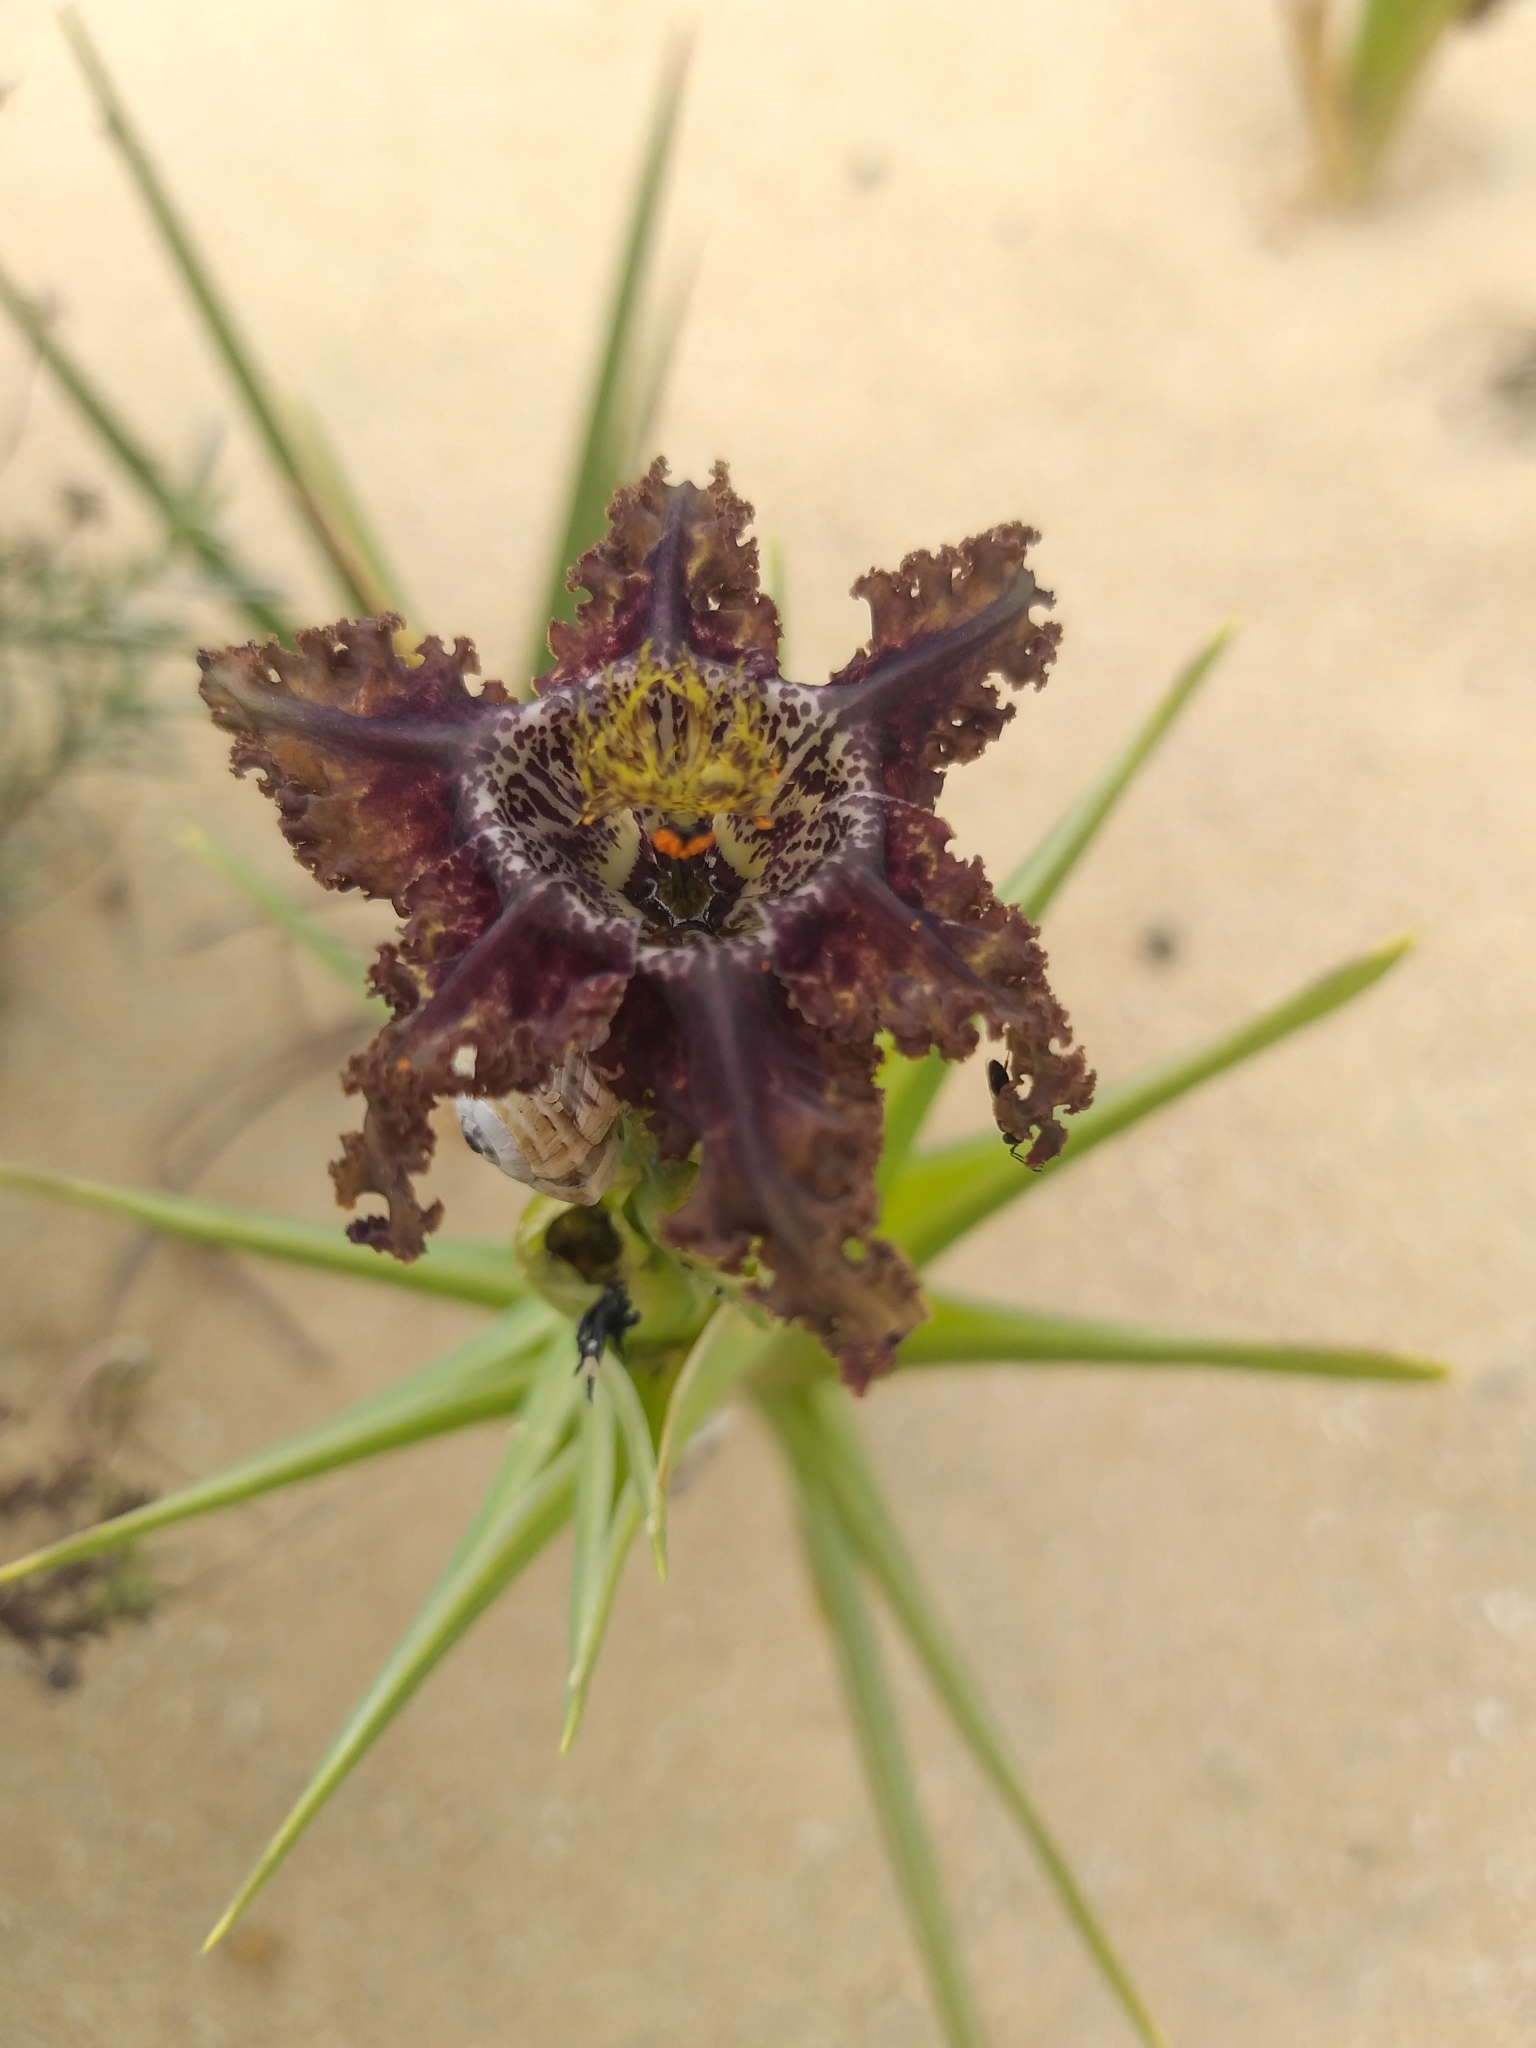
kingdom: Plantae
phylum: Tracheophyta
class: Liliopsida
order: Asparagales
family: Iridaceae
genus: Ferraria
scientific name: Ferraria foliosa
